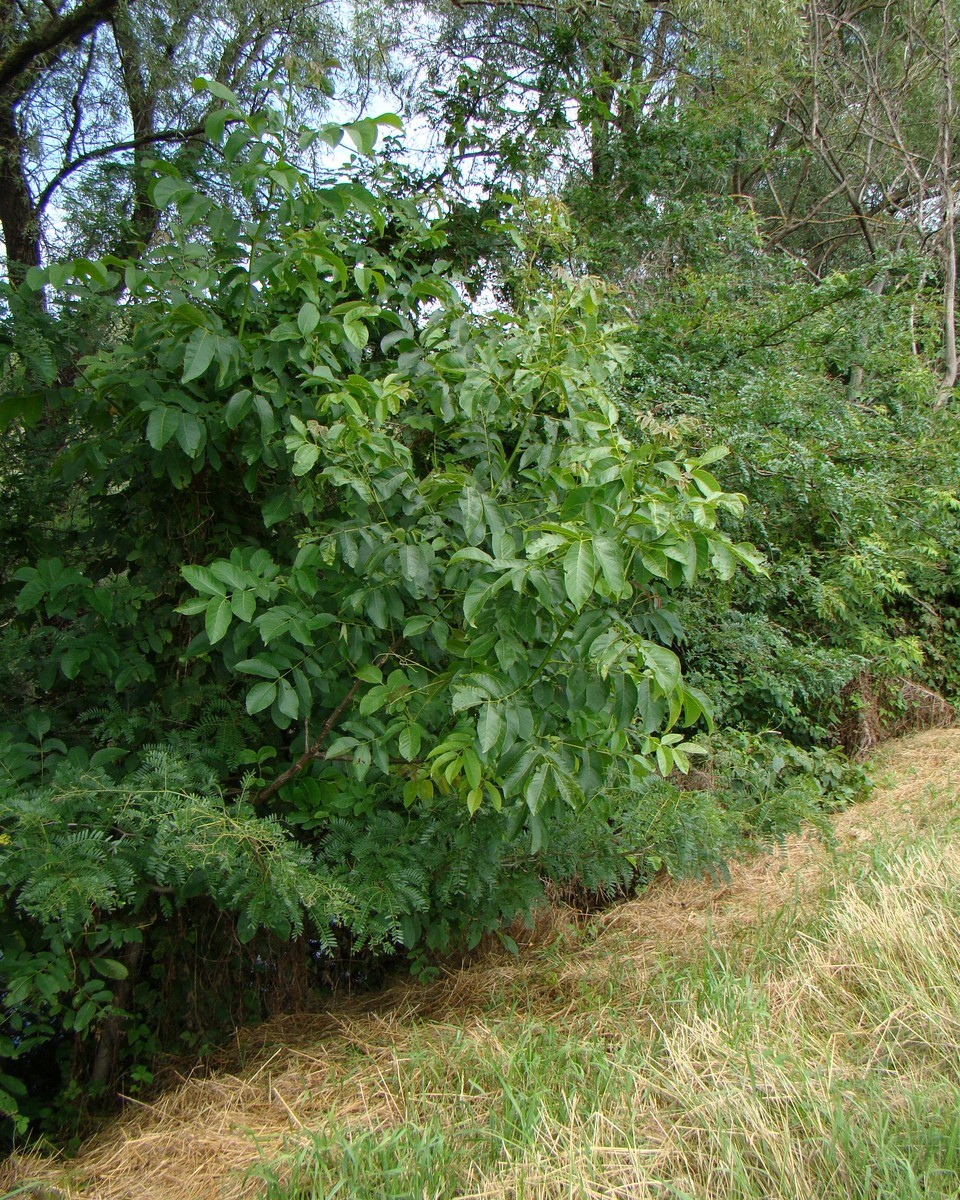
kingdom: Plantae
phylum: Tracheophyta
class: Magnoliopsida
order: Fagales
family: Juglandaceae
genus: Juglans
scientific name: Juglans regia
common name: Walnut
